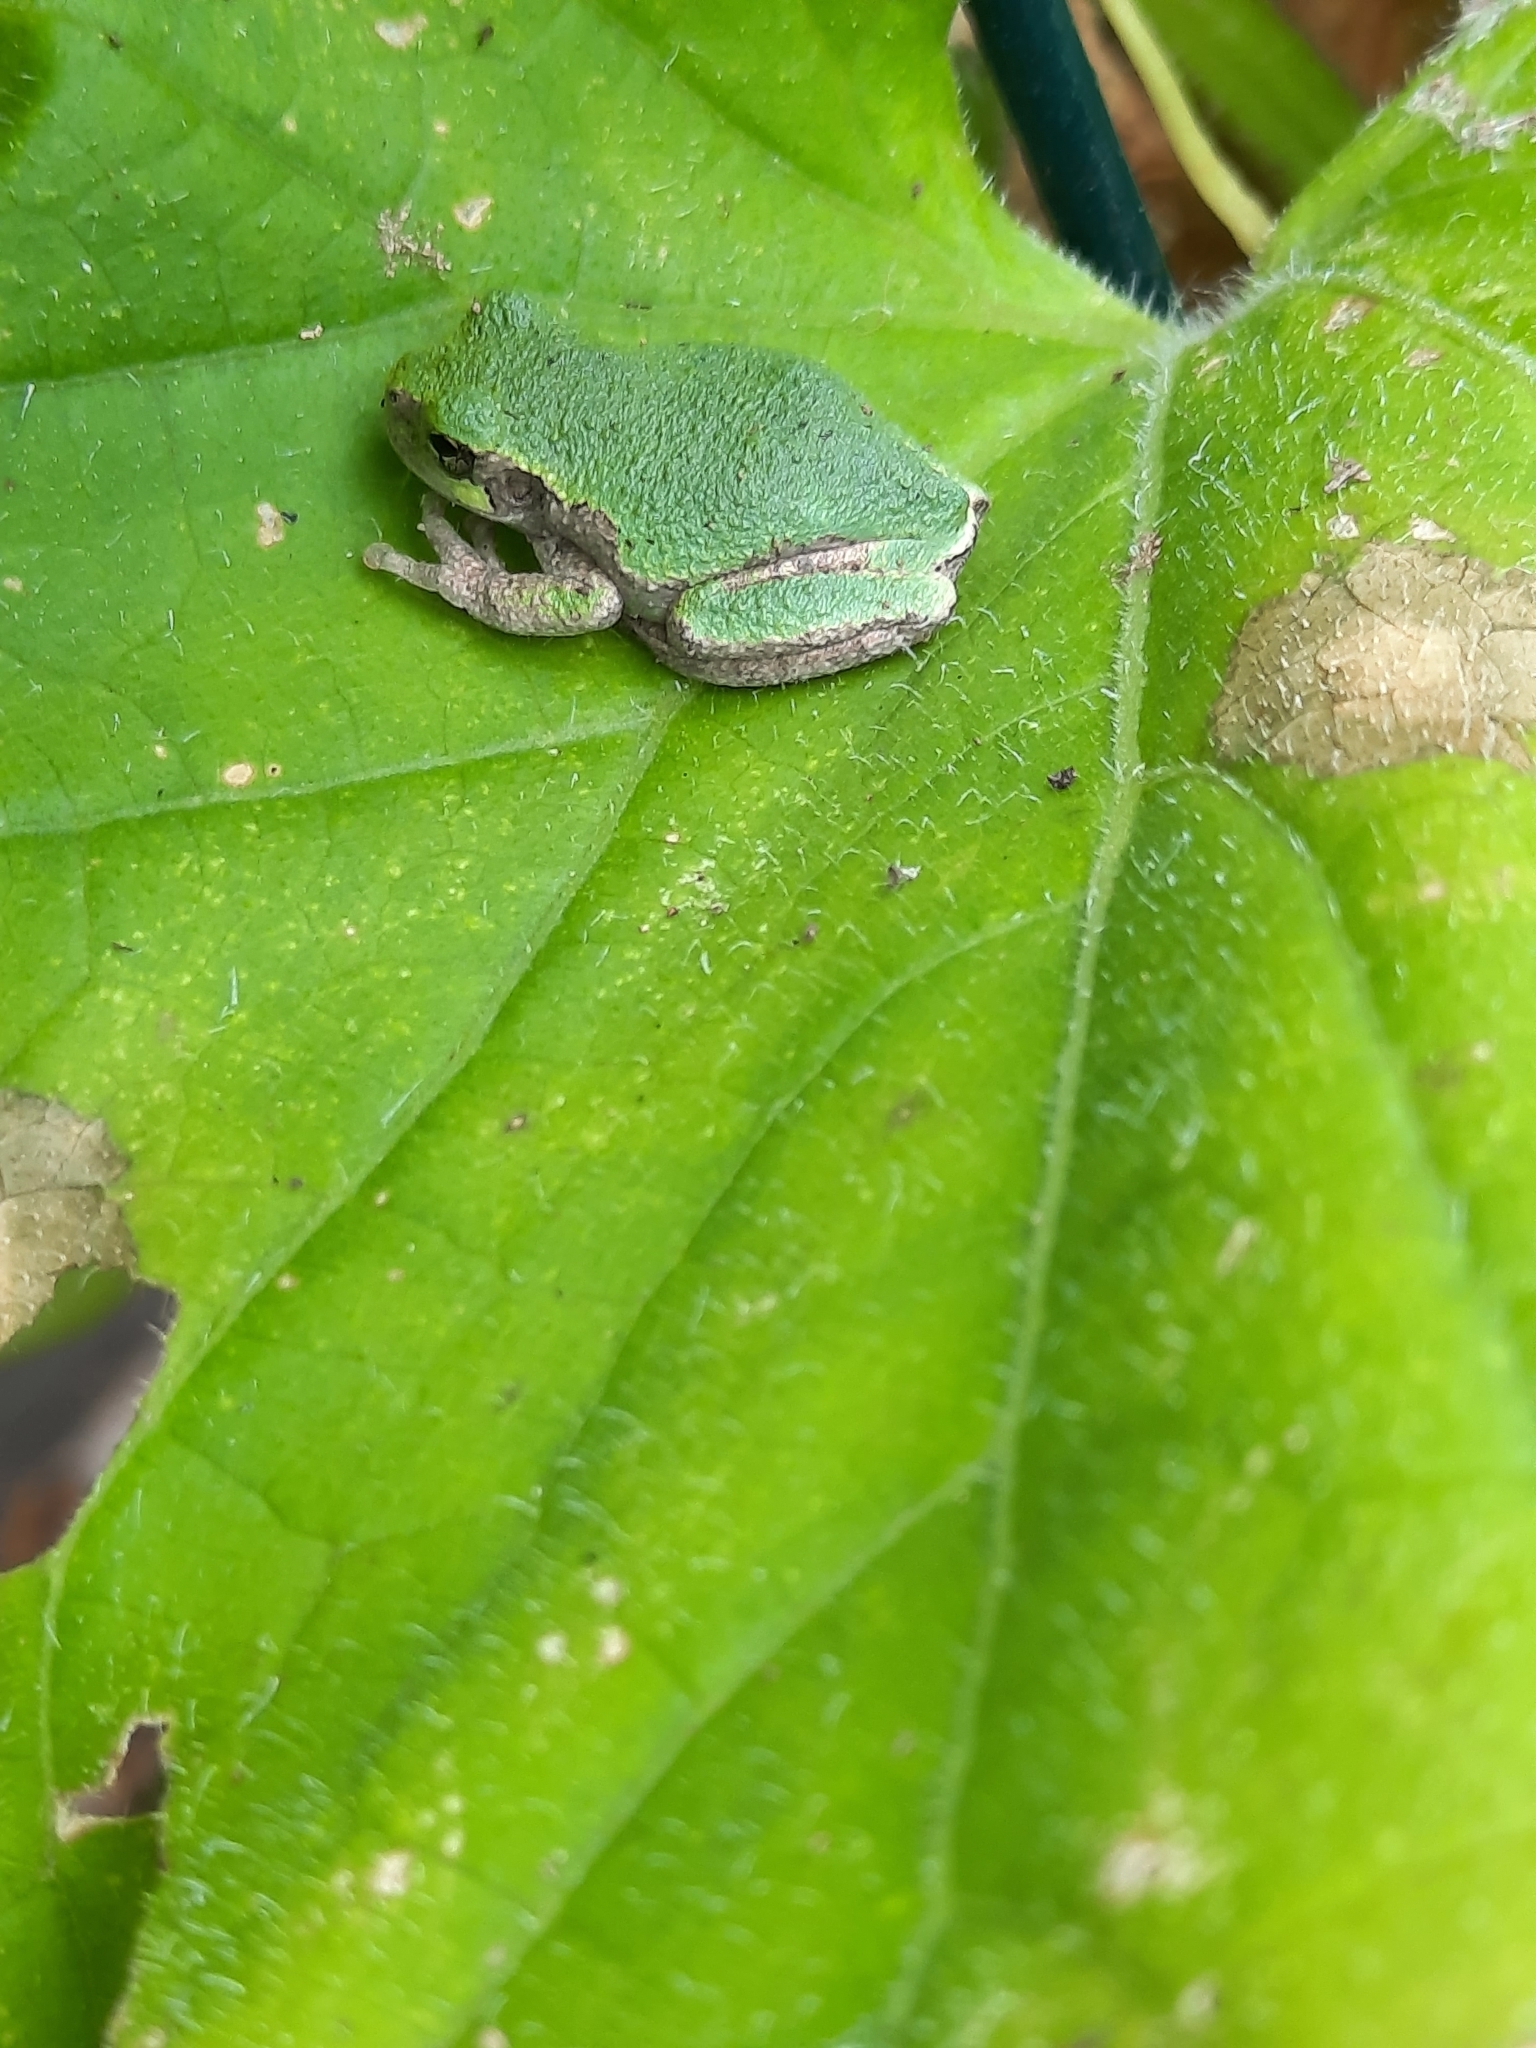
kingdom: Animalia
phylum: Chordata
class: Amphibia
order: Anura
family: Hylidae
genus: Dryophytes
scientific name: Dryophytes versicolor
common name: Gray treefrog
